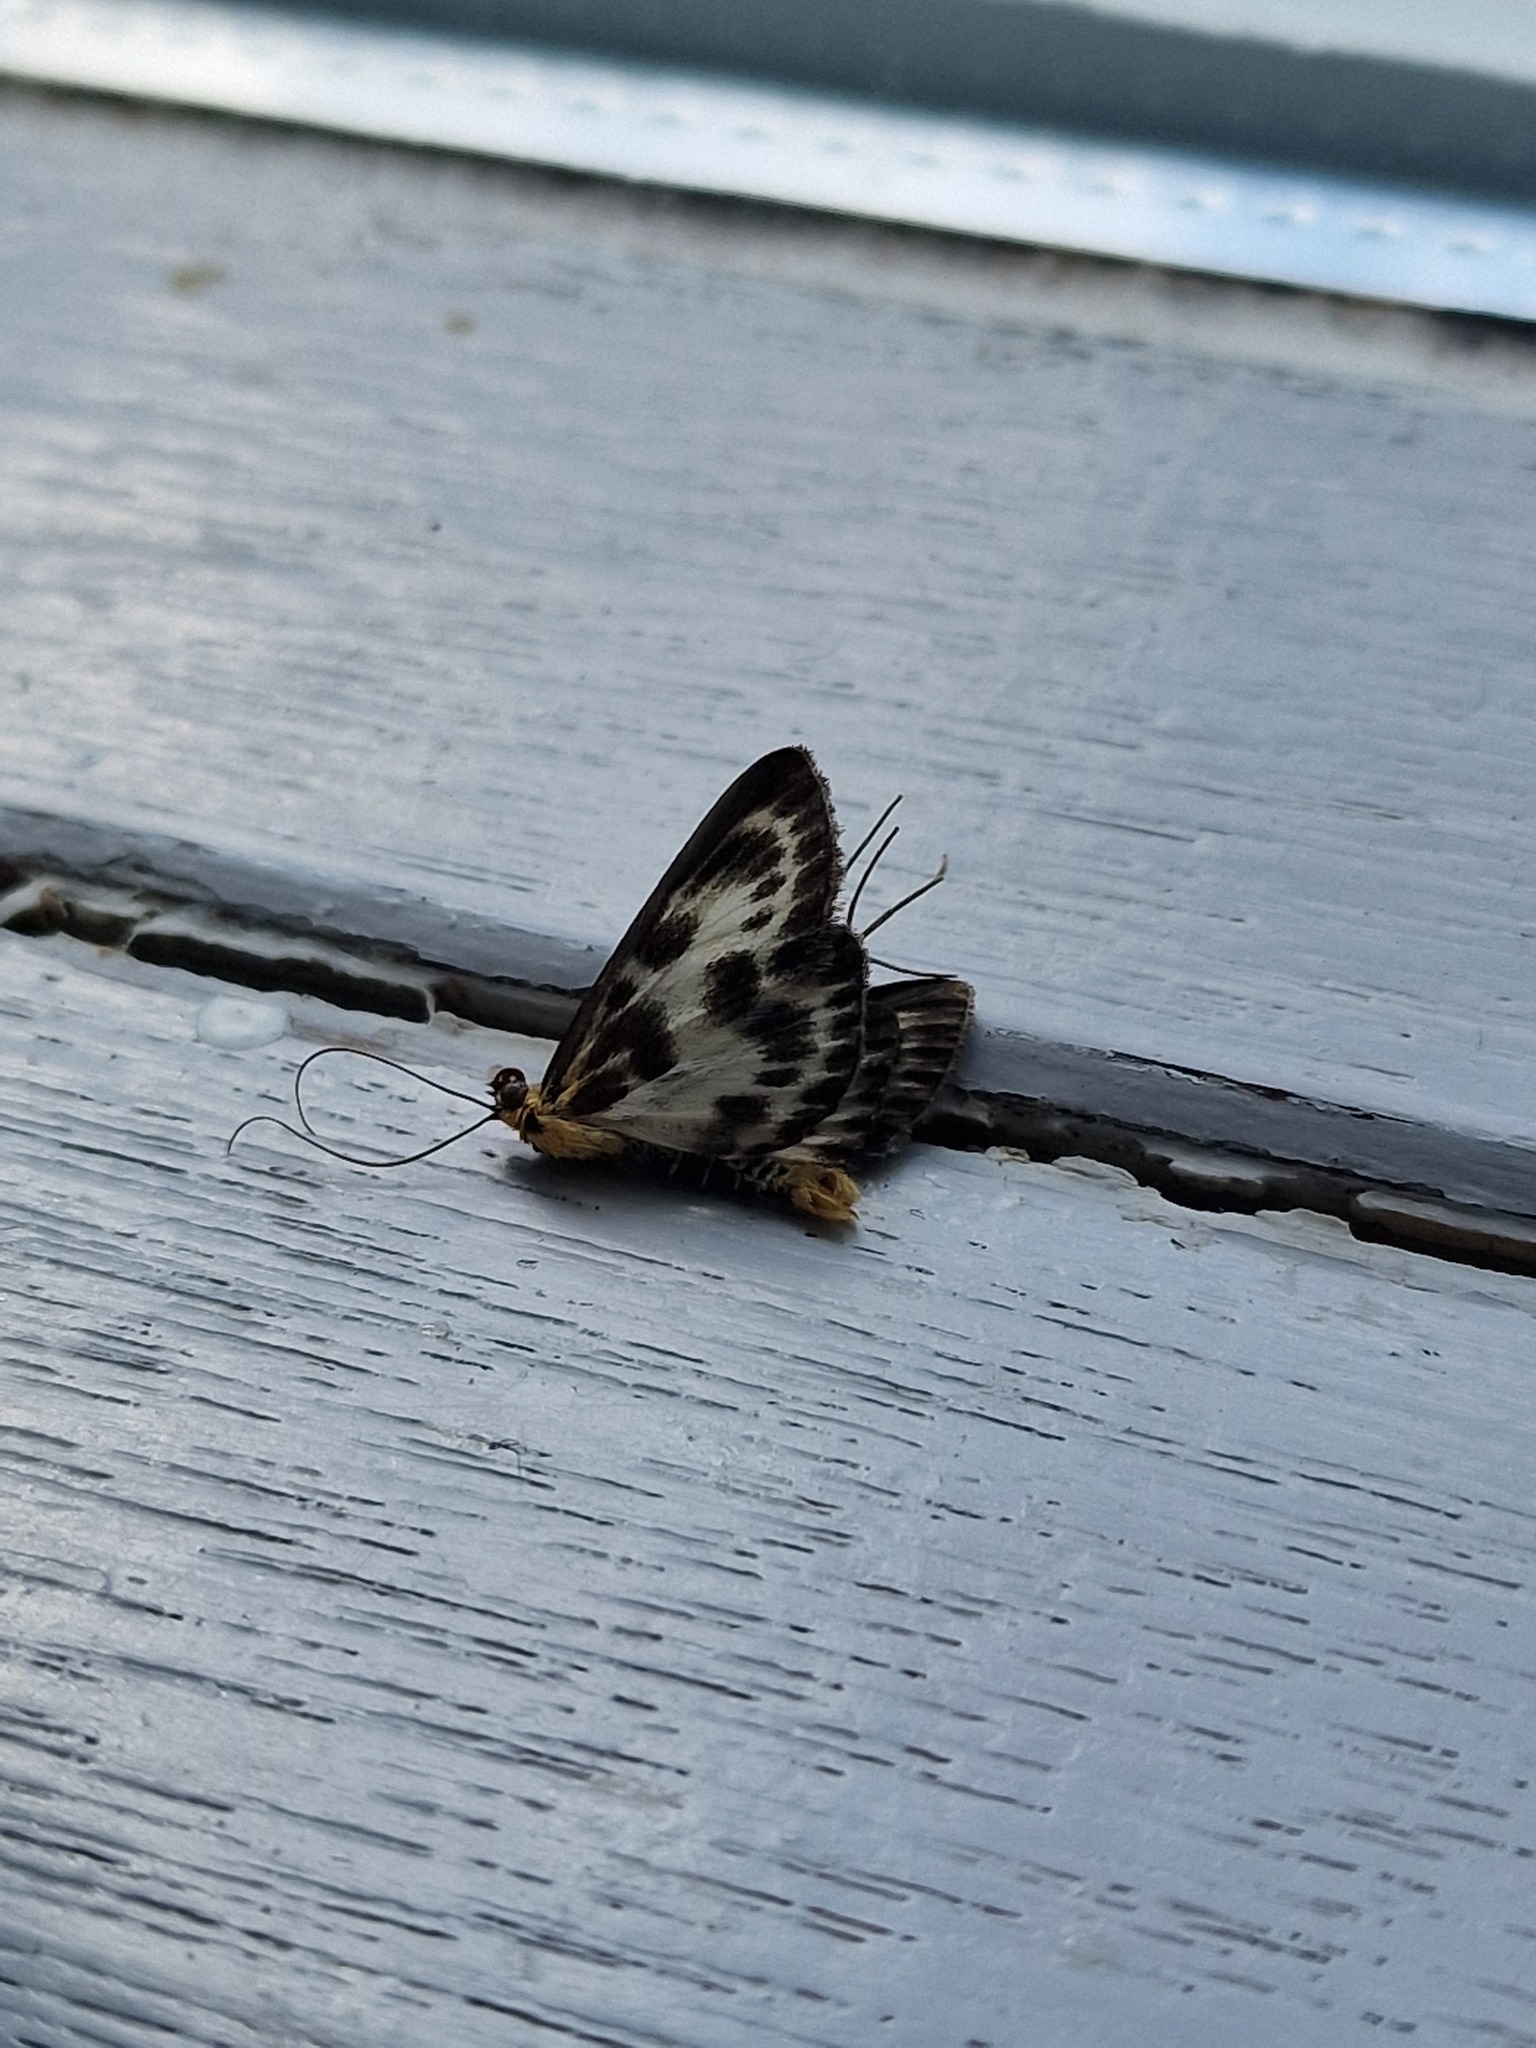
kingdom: Animalia
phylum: Arthropoda
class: Insecta
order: Lepidoptera
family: Crambidae
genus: Anania
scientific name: Anania hortulata
